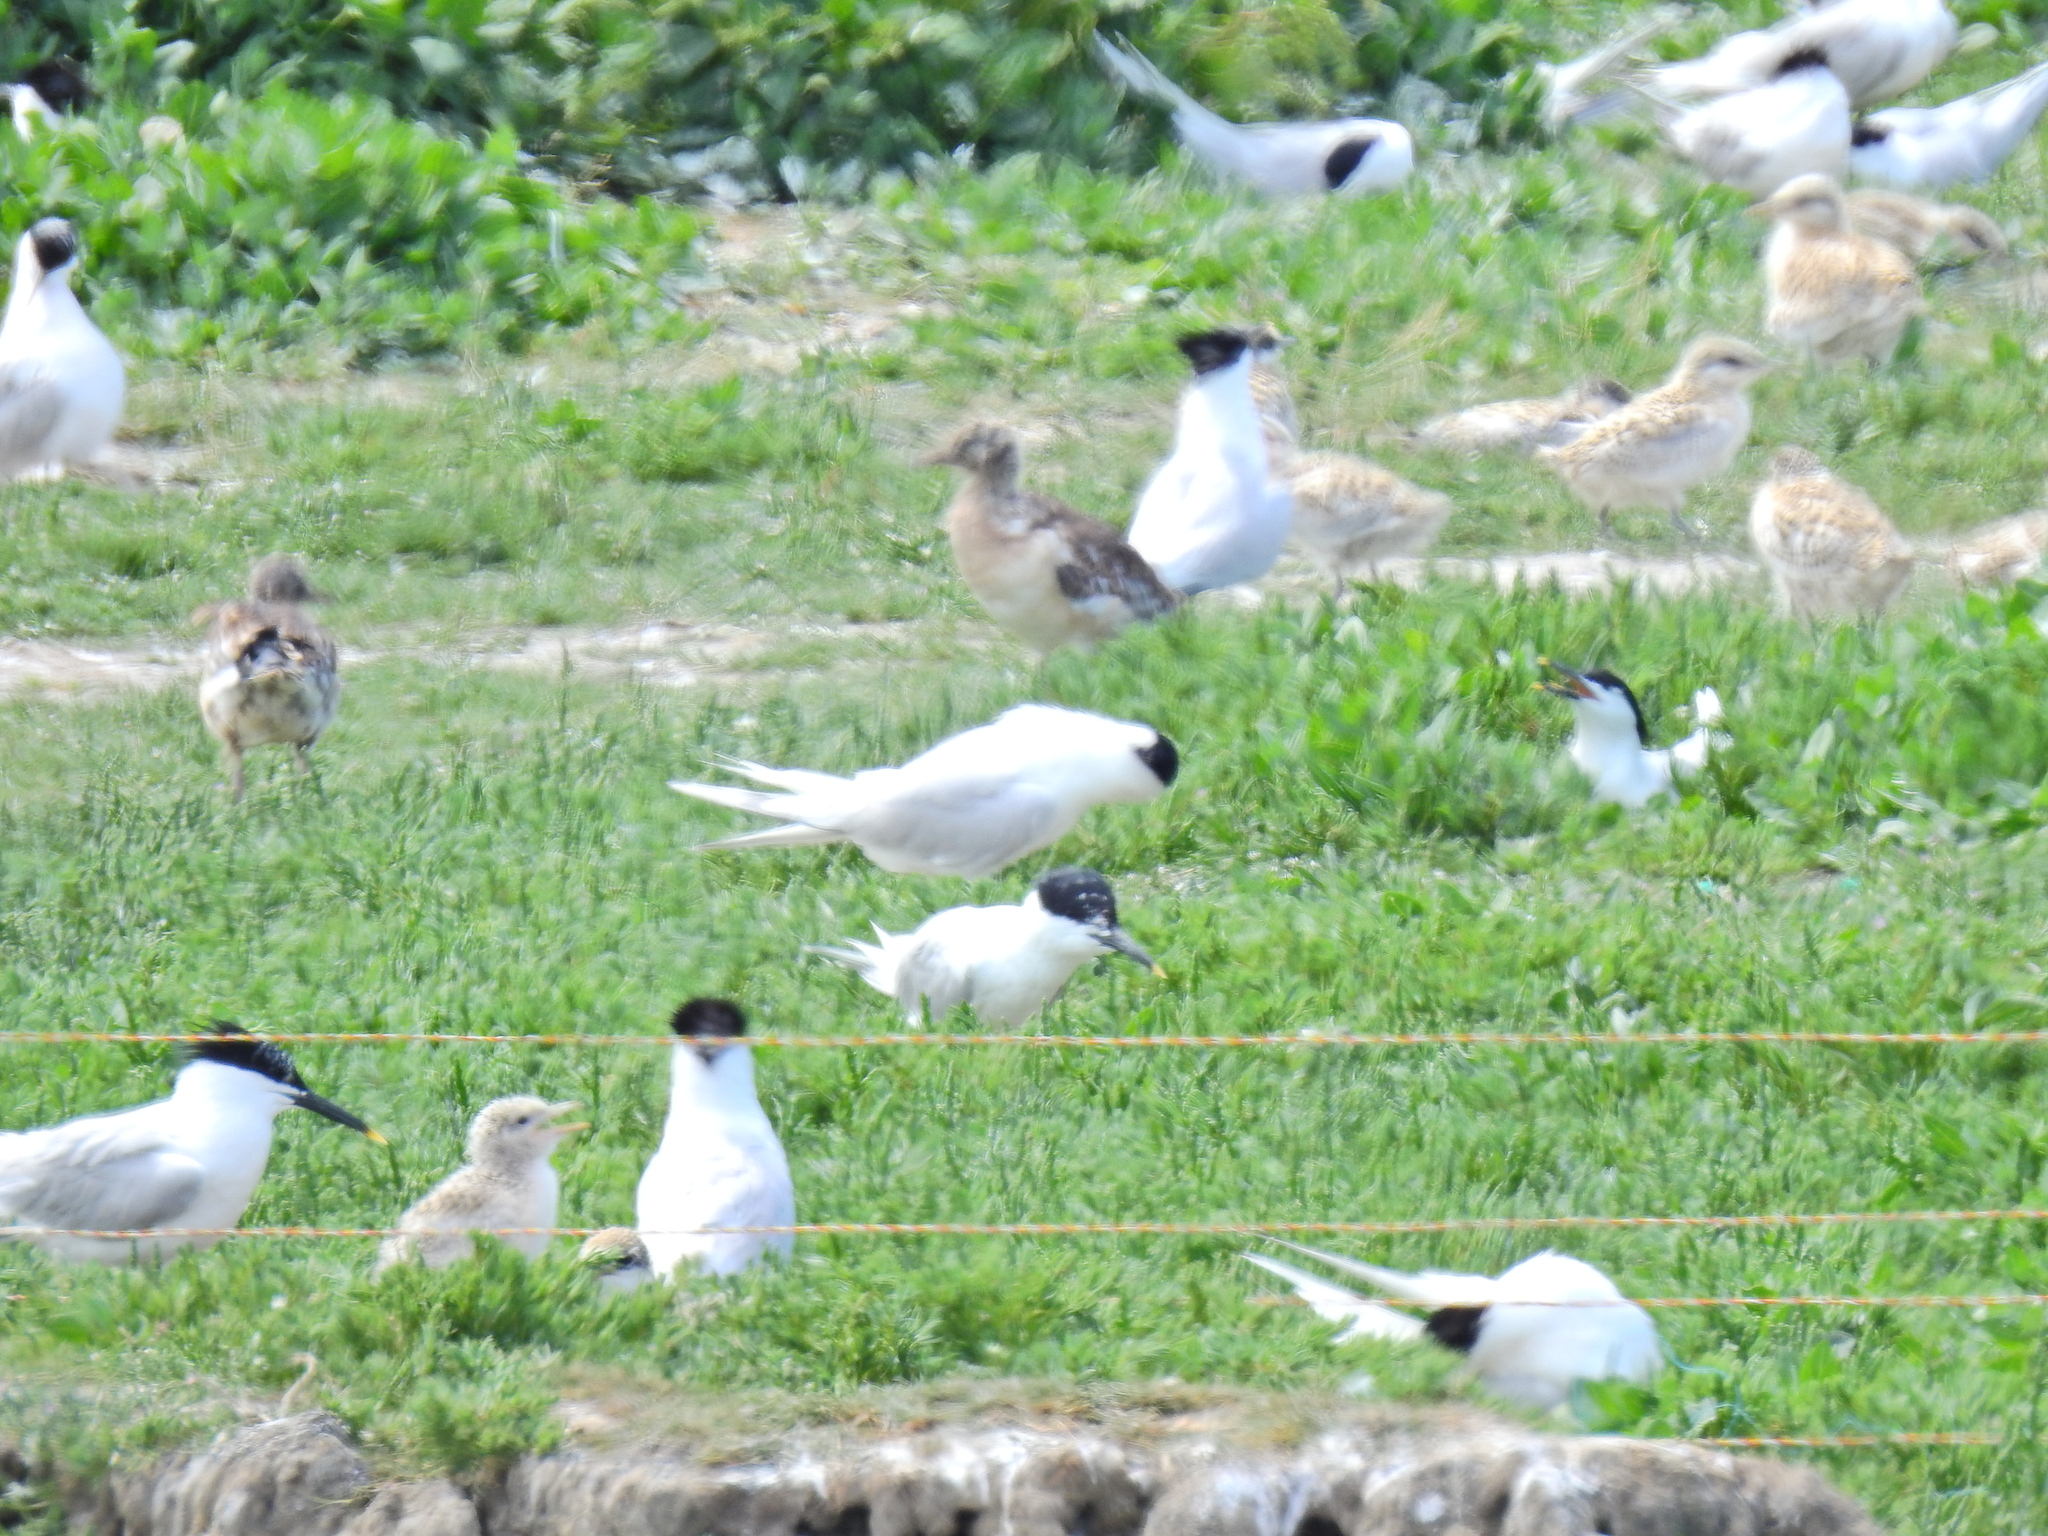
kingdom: Animalia
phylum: Chordata
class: Aves
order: Charadriiformes
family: Laridae
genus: Thalasseus
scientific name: Thalasseus sandvicensis
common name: Sandwich tern
